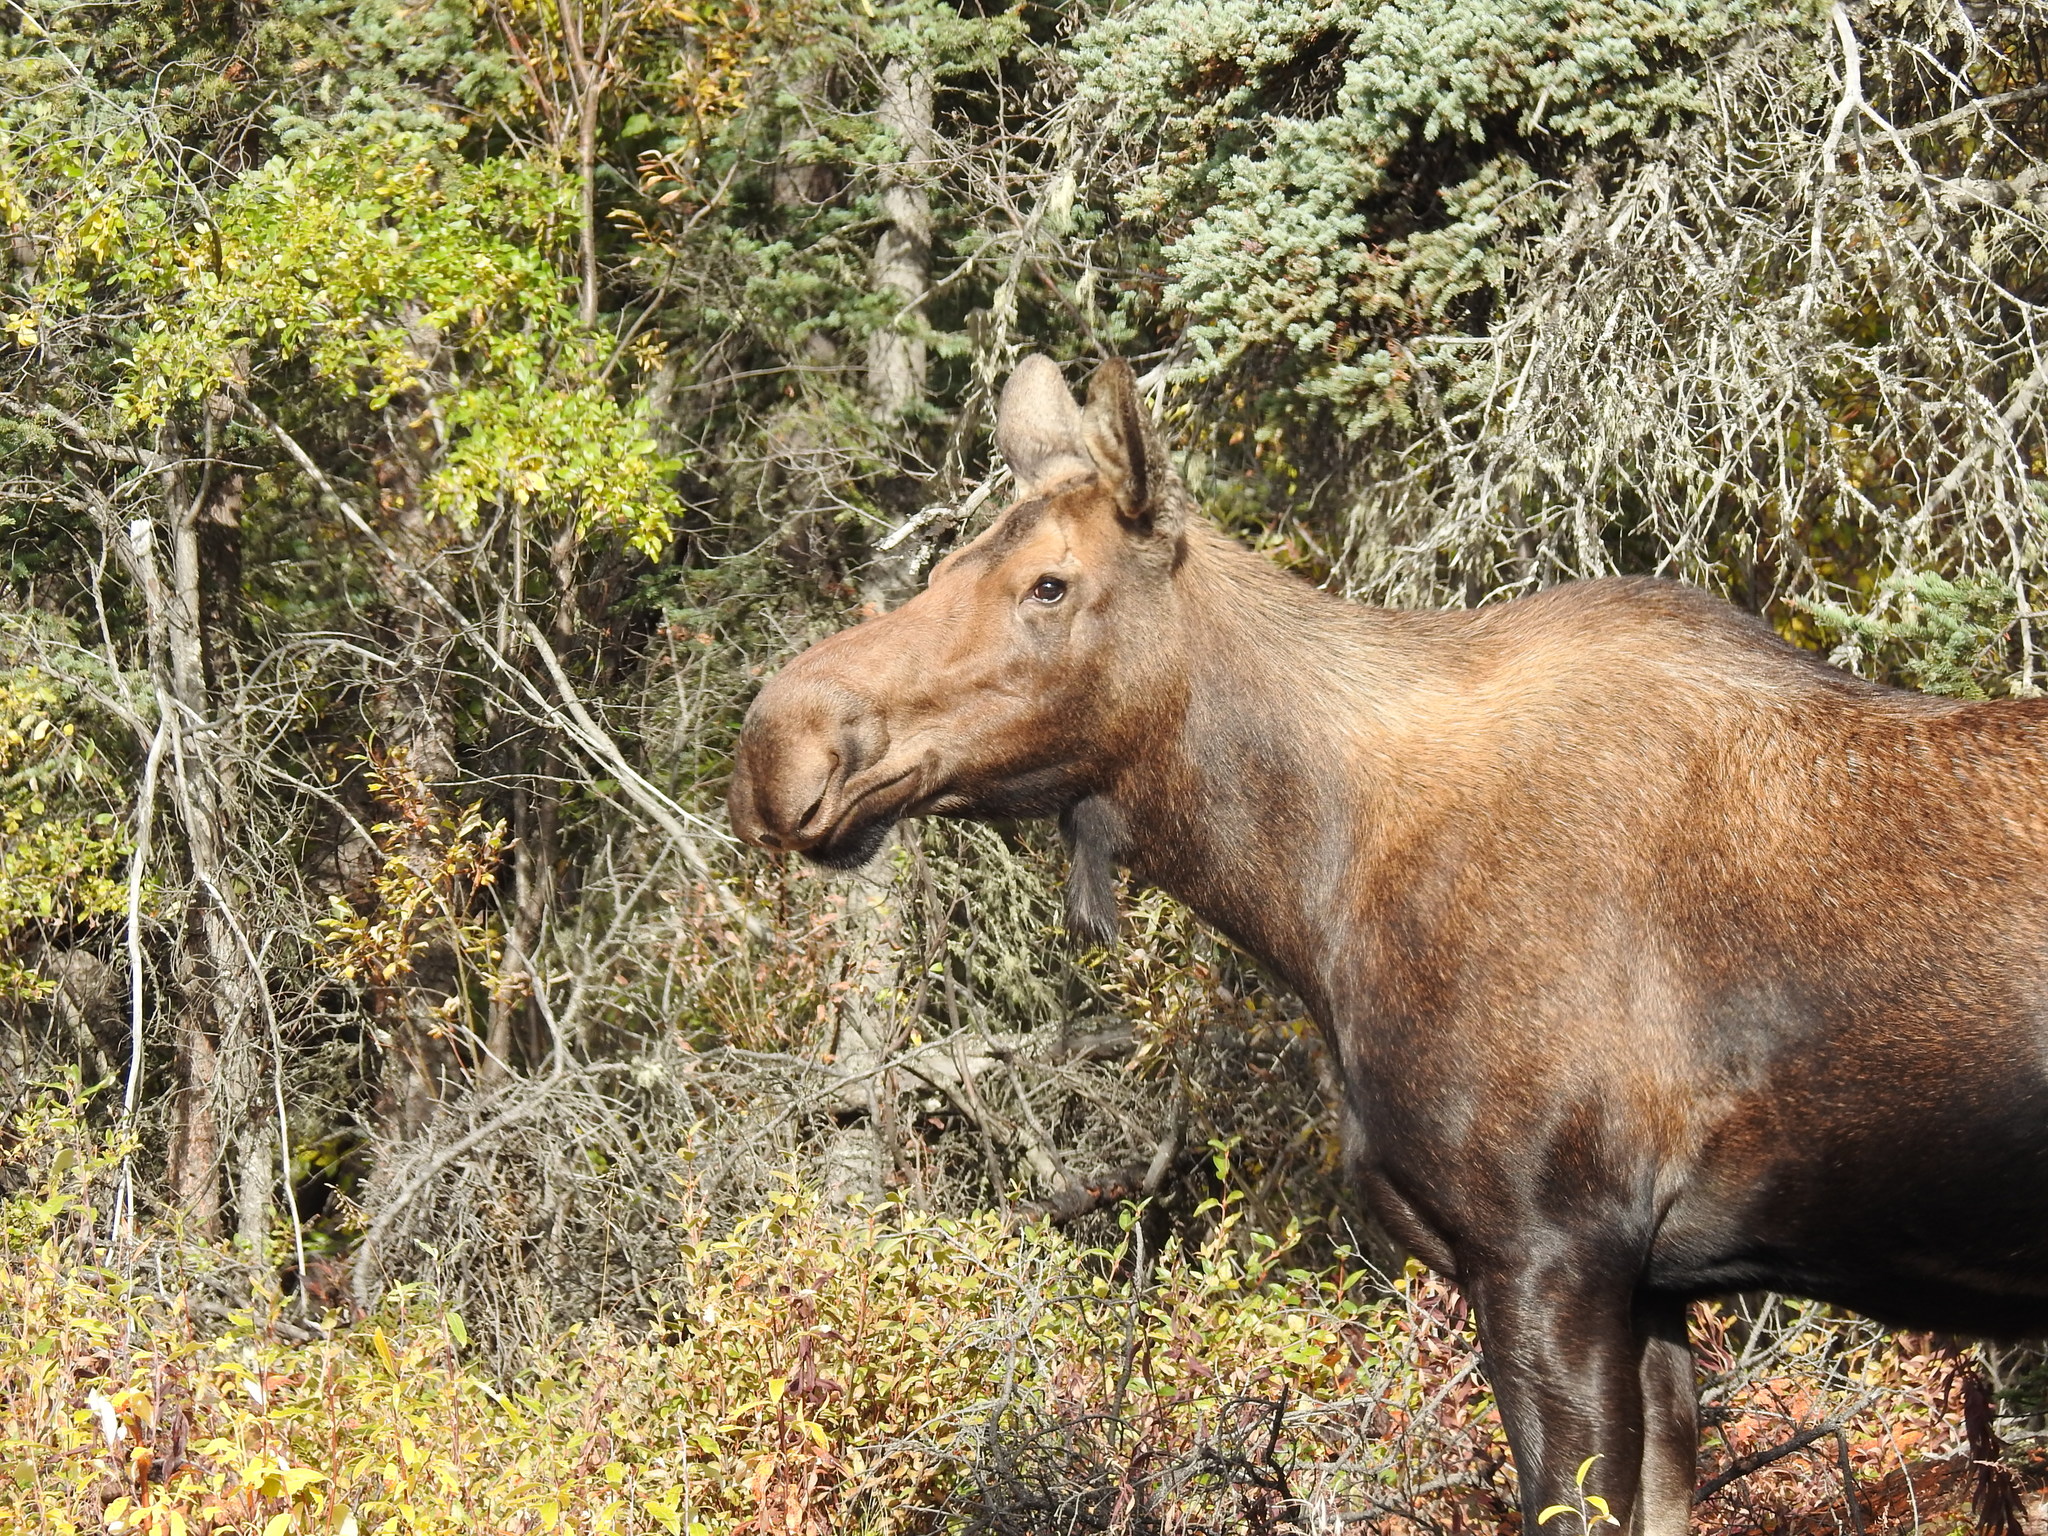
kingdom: Animalia
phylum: Chordata
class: Mammalia
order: Artiodactyla
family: Cervidae
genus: Alces
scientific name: Alces alces
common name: Moose
